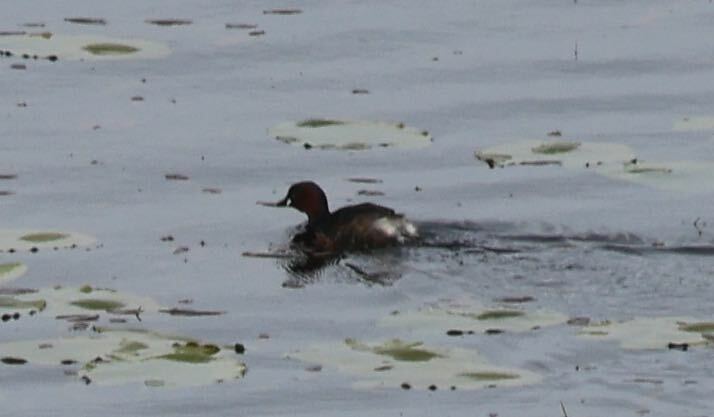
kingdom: Animalia
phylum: Chordata
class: Aves
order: Podicipediformes
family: Podicipedidae
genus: Tachybaptus
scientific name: Tachybaptus ruficollis
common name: Little grebe
